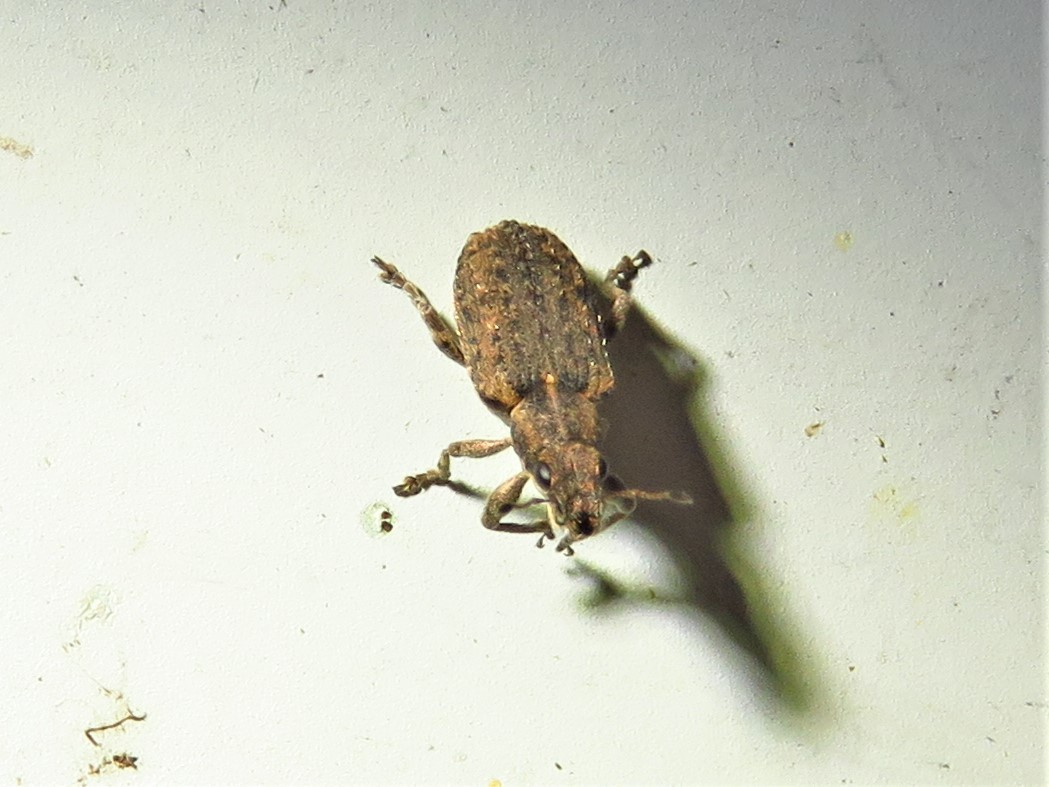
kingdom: Animalia
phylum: Arthropoda
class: Insecta
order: Coleoptera
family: Curculionidae
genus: Sitones
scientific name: Sitones californius
